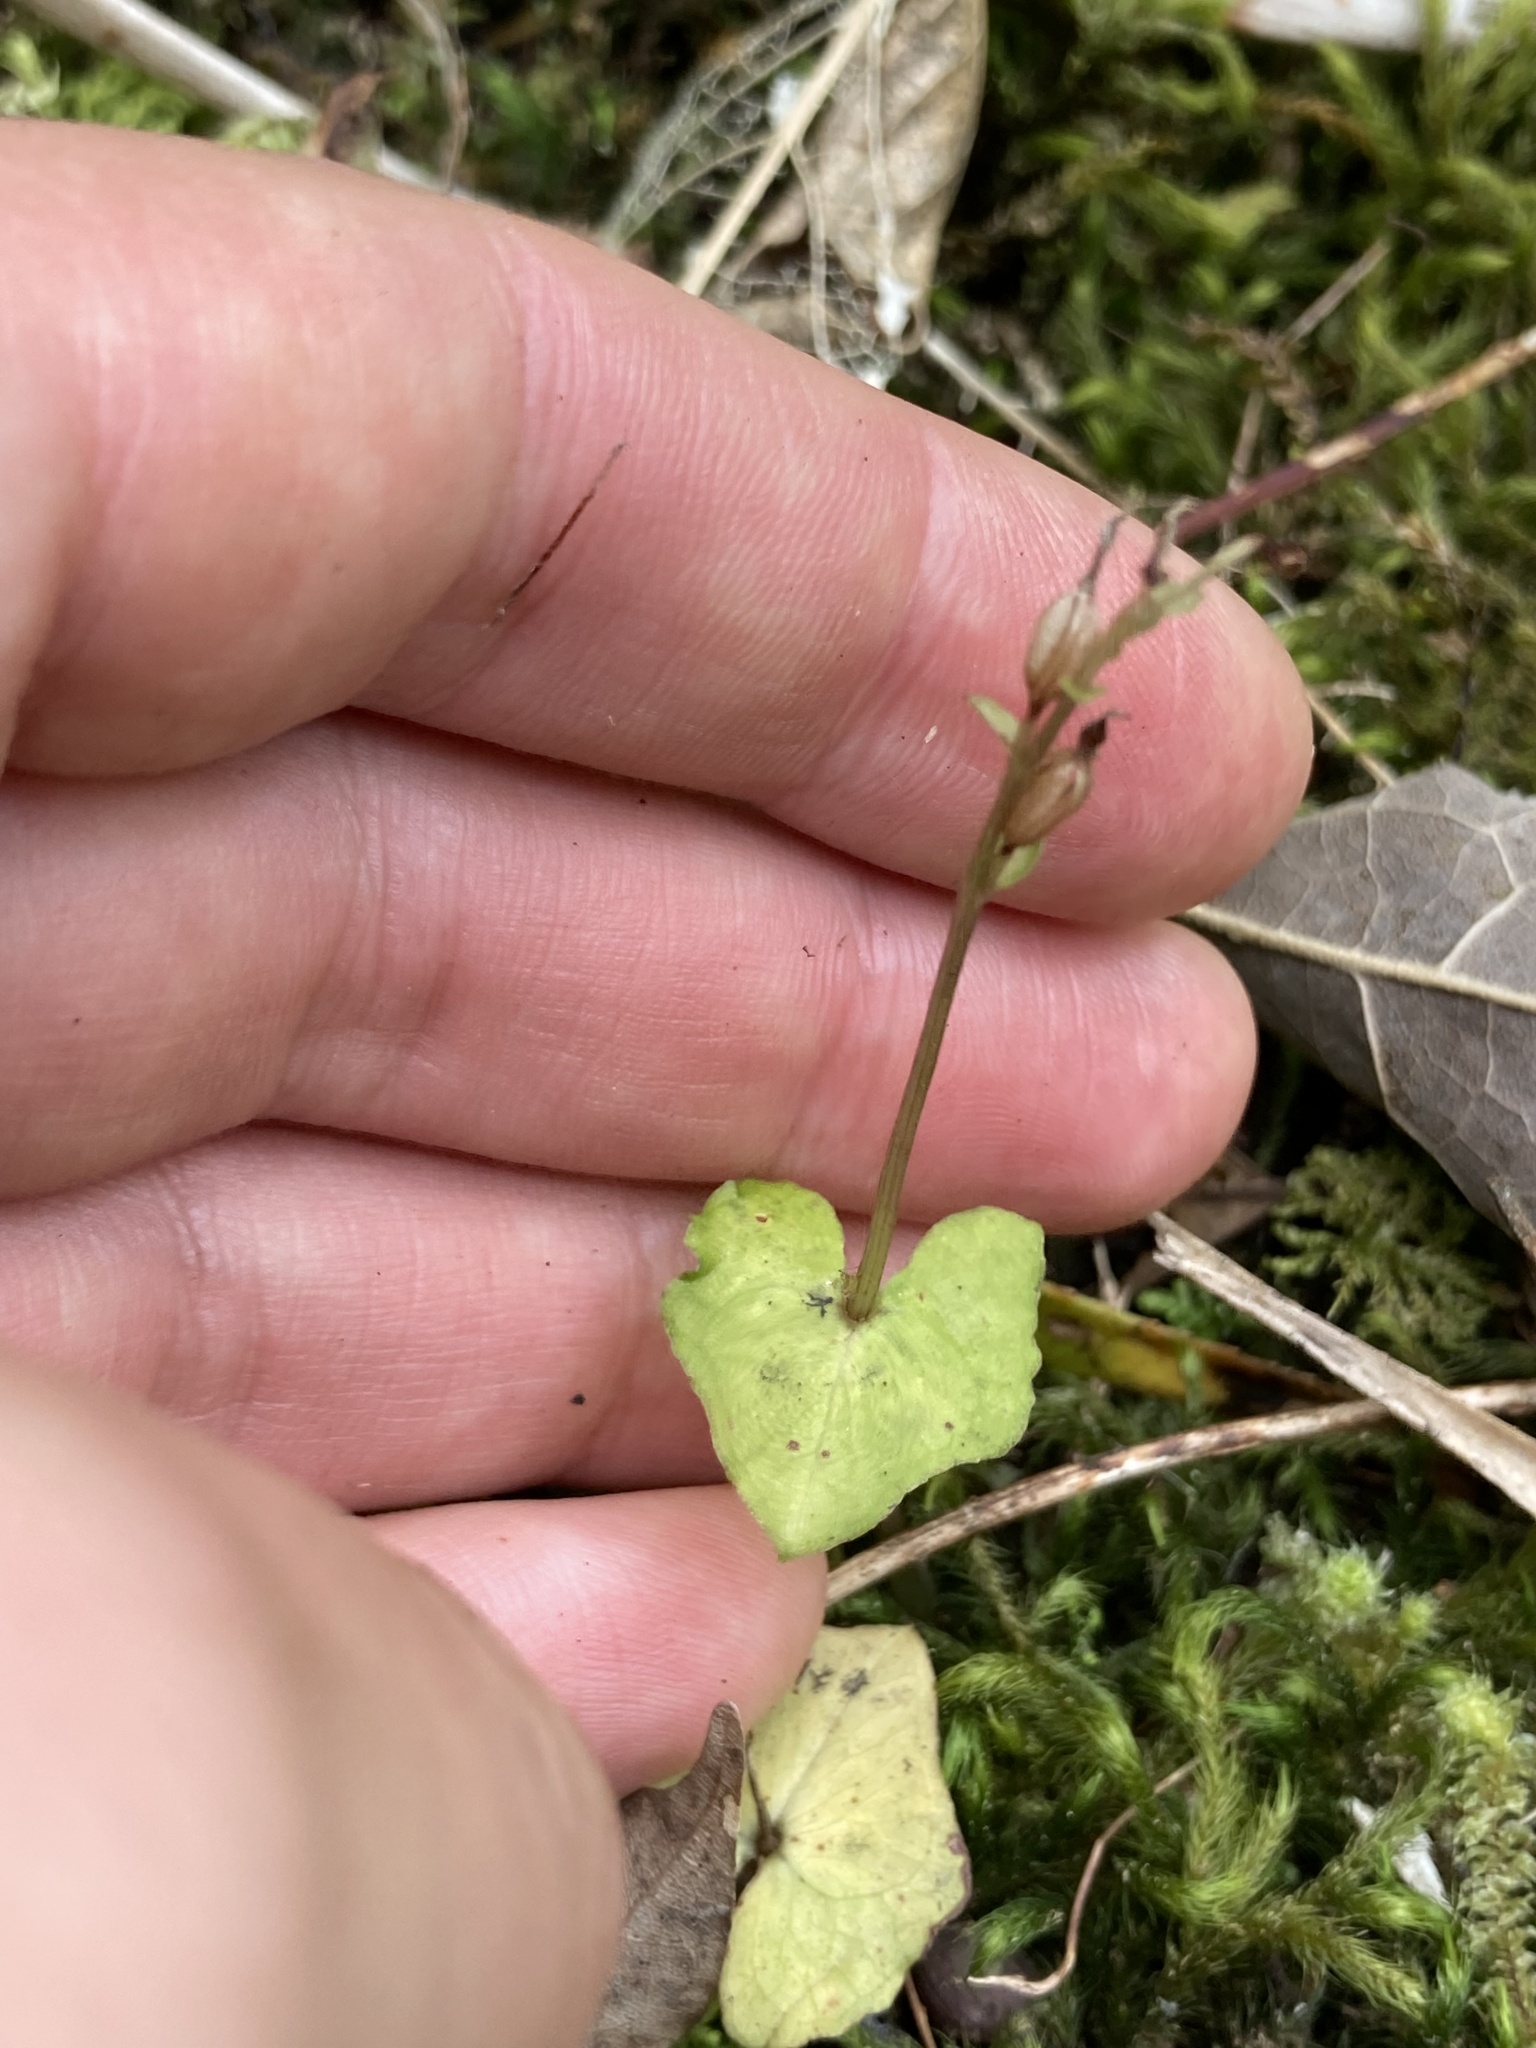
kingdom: Plantae
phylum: Tracheophyta
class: Liliopsida
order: Asparagales
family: Orchidaceae
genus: Acianthus
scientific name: Acianthus sinclairii
